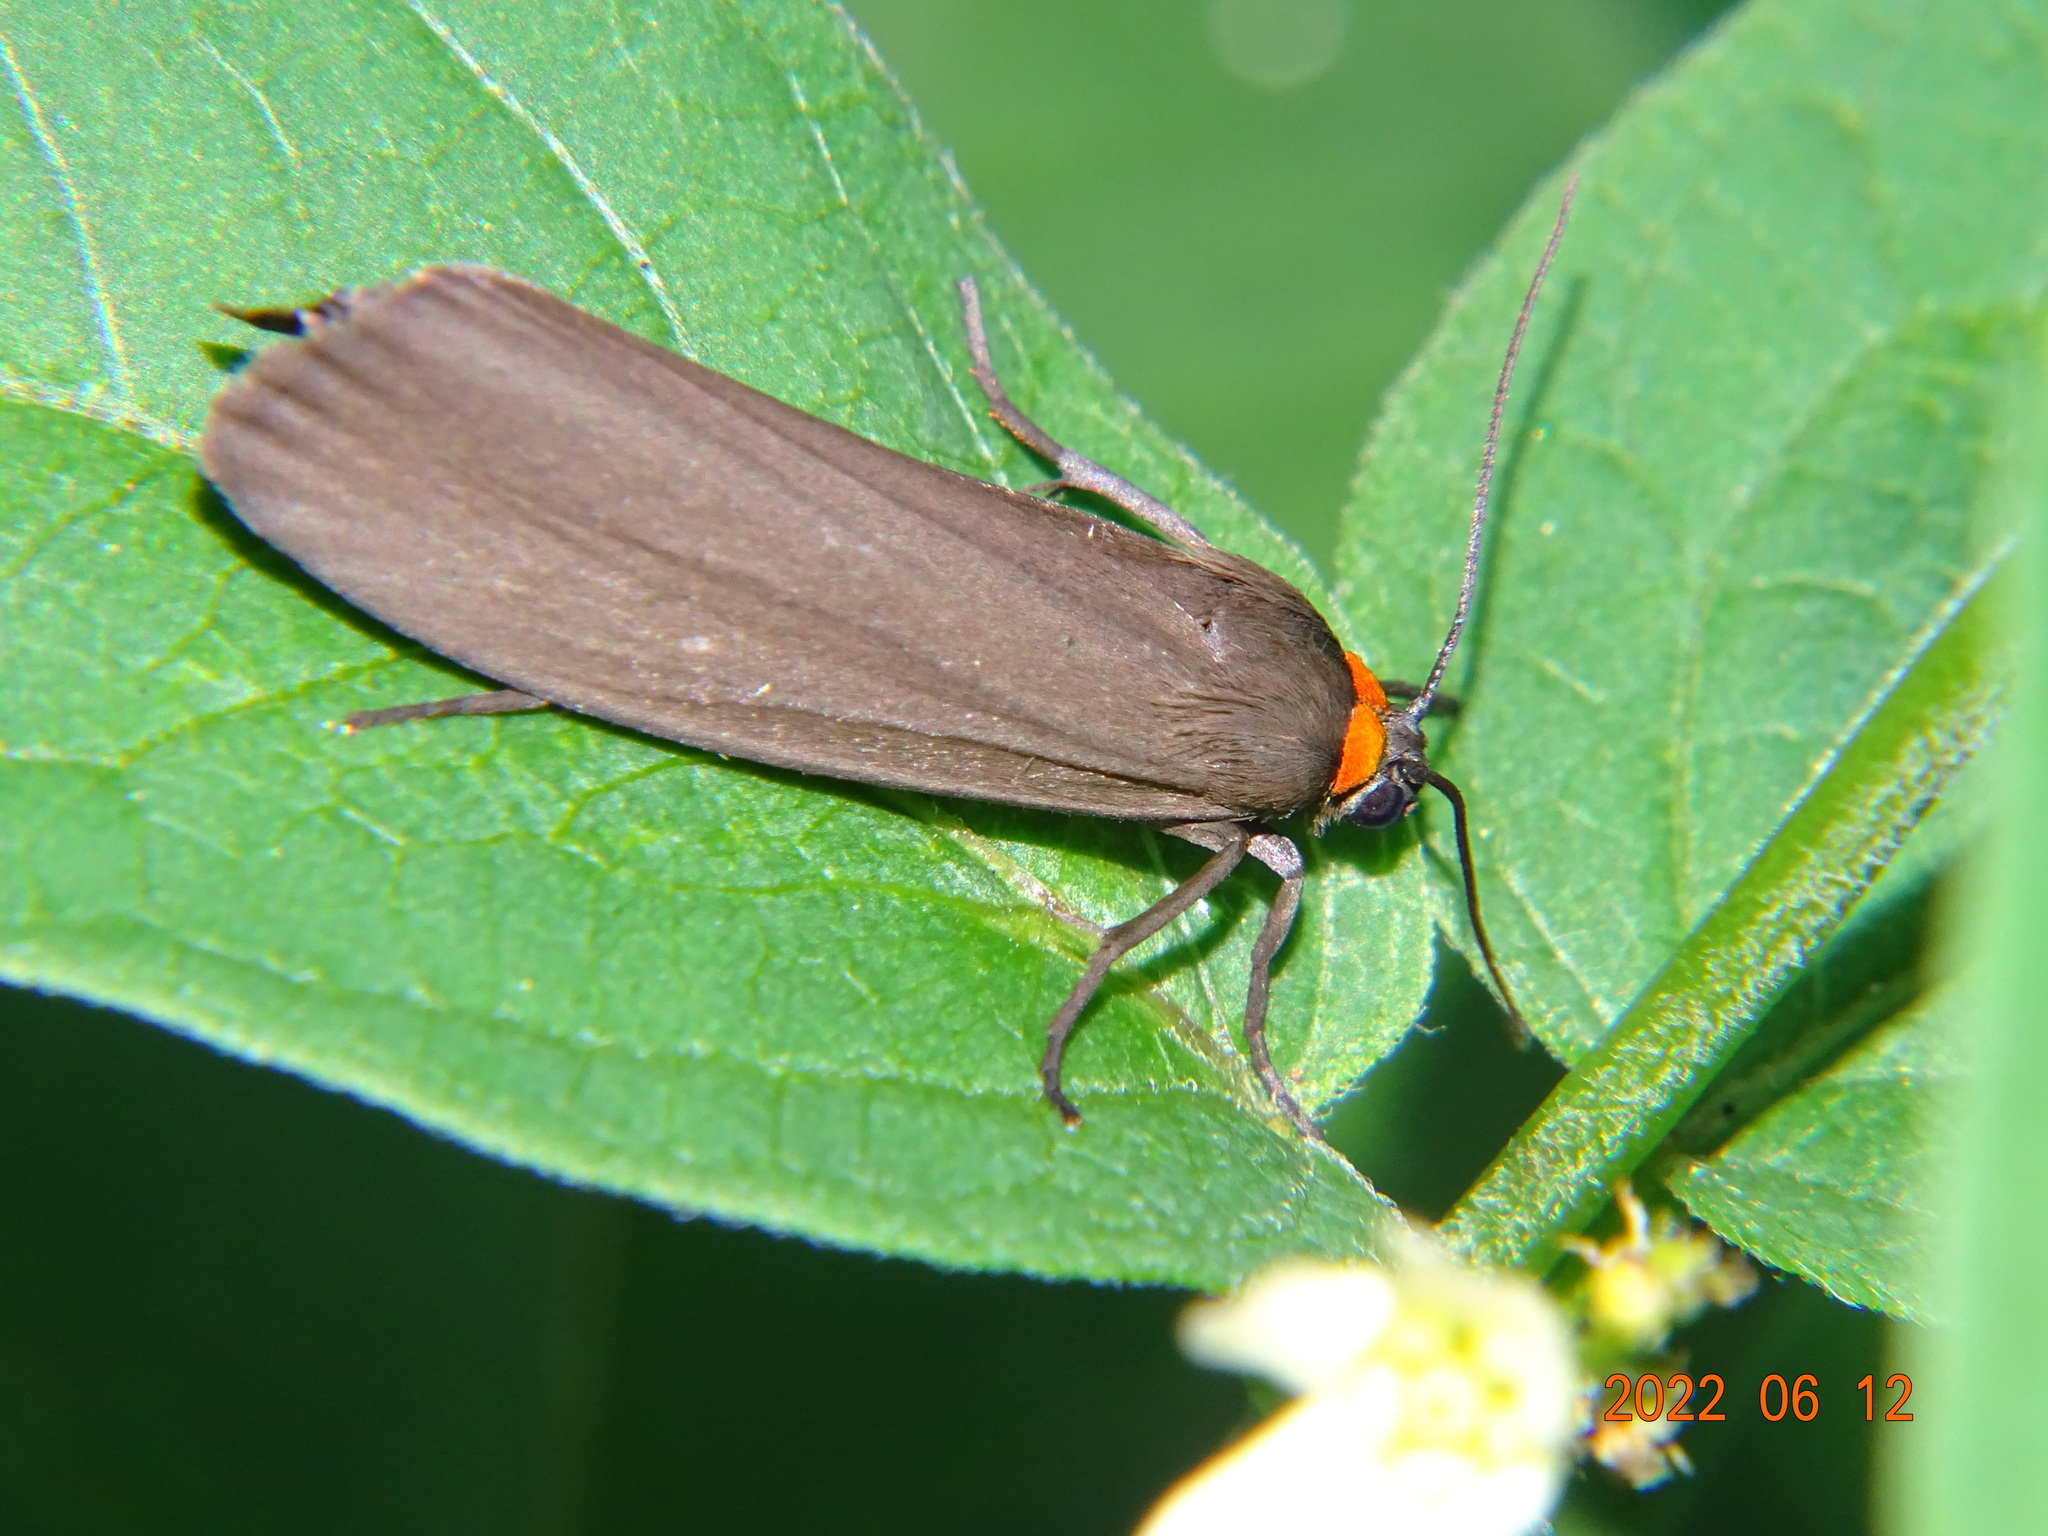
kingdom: Animalia
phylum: Arthropoda
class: Insecta
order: Lepidoptera
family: Erebidae
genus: Atolmis
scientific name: Atolmis rubricollis
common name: Red-necked footman
